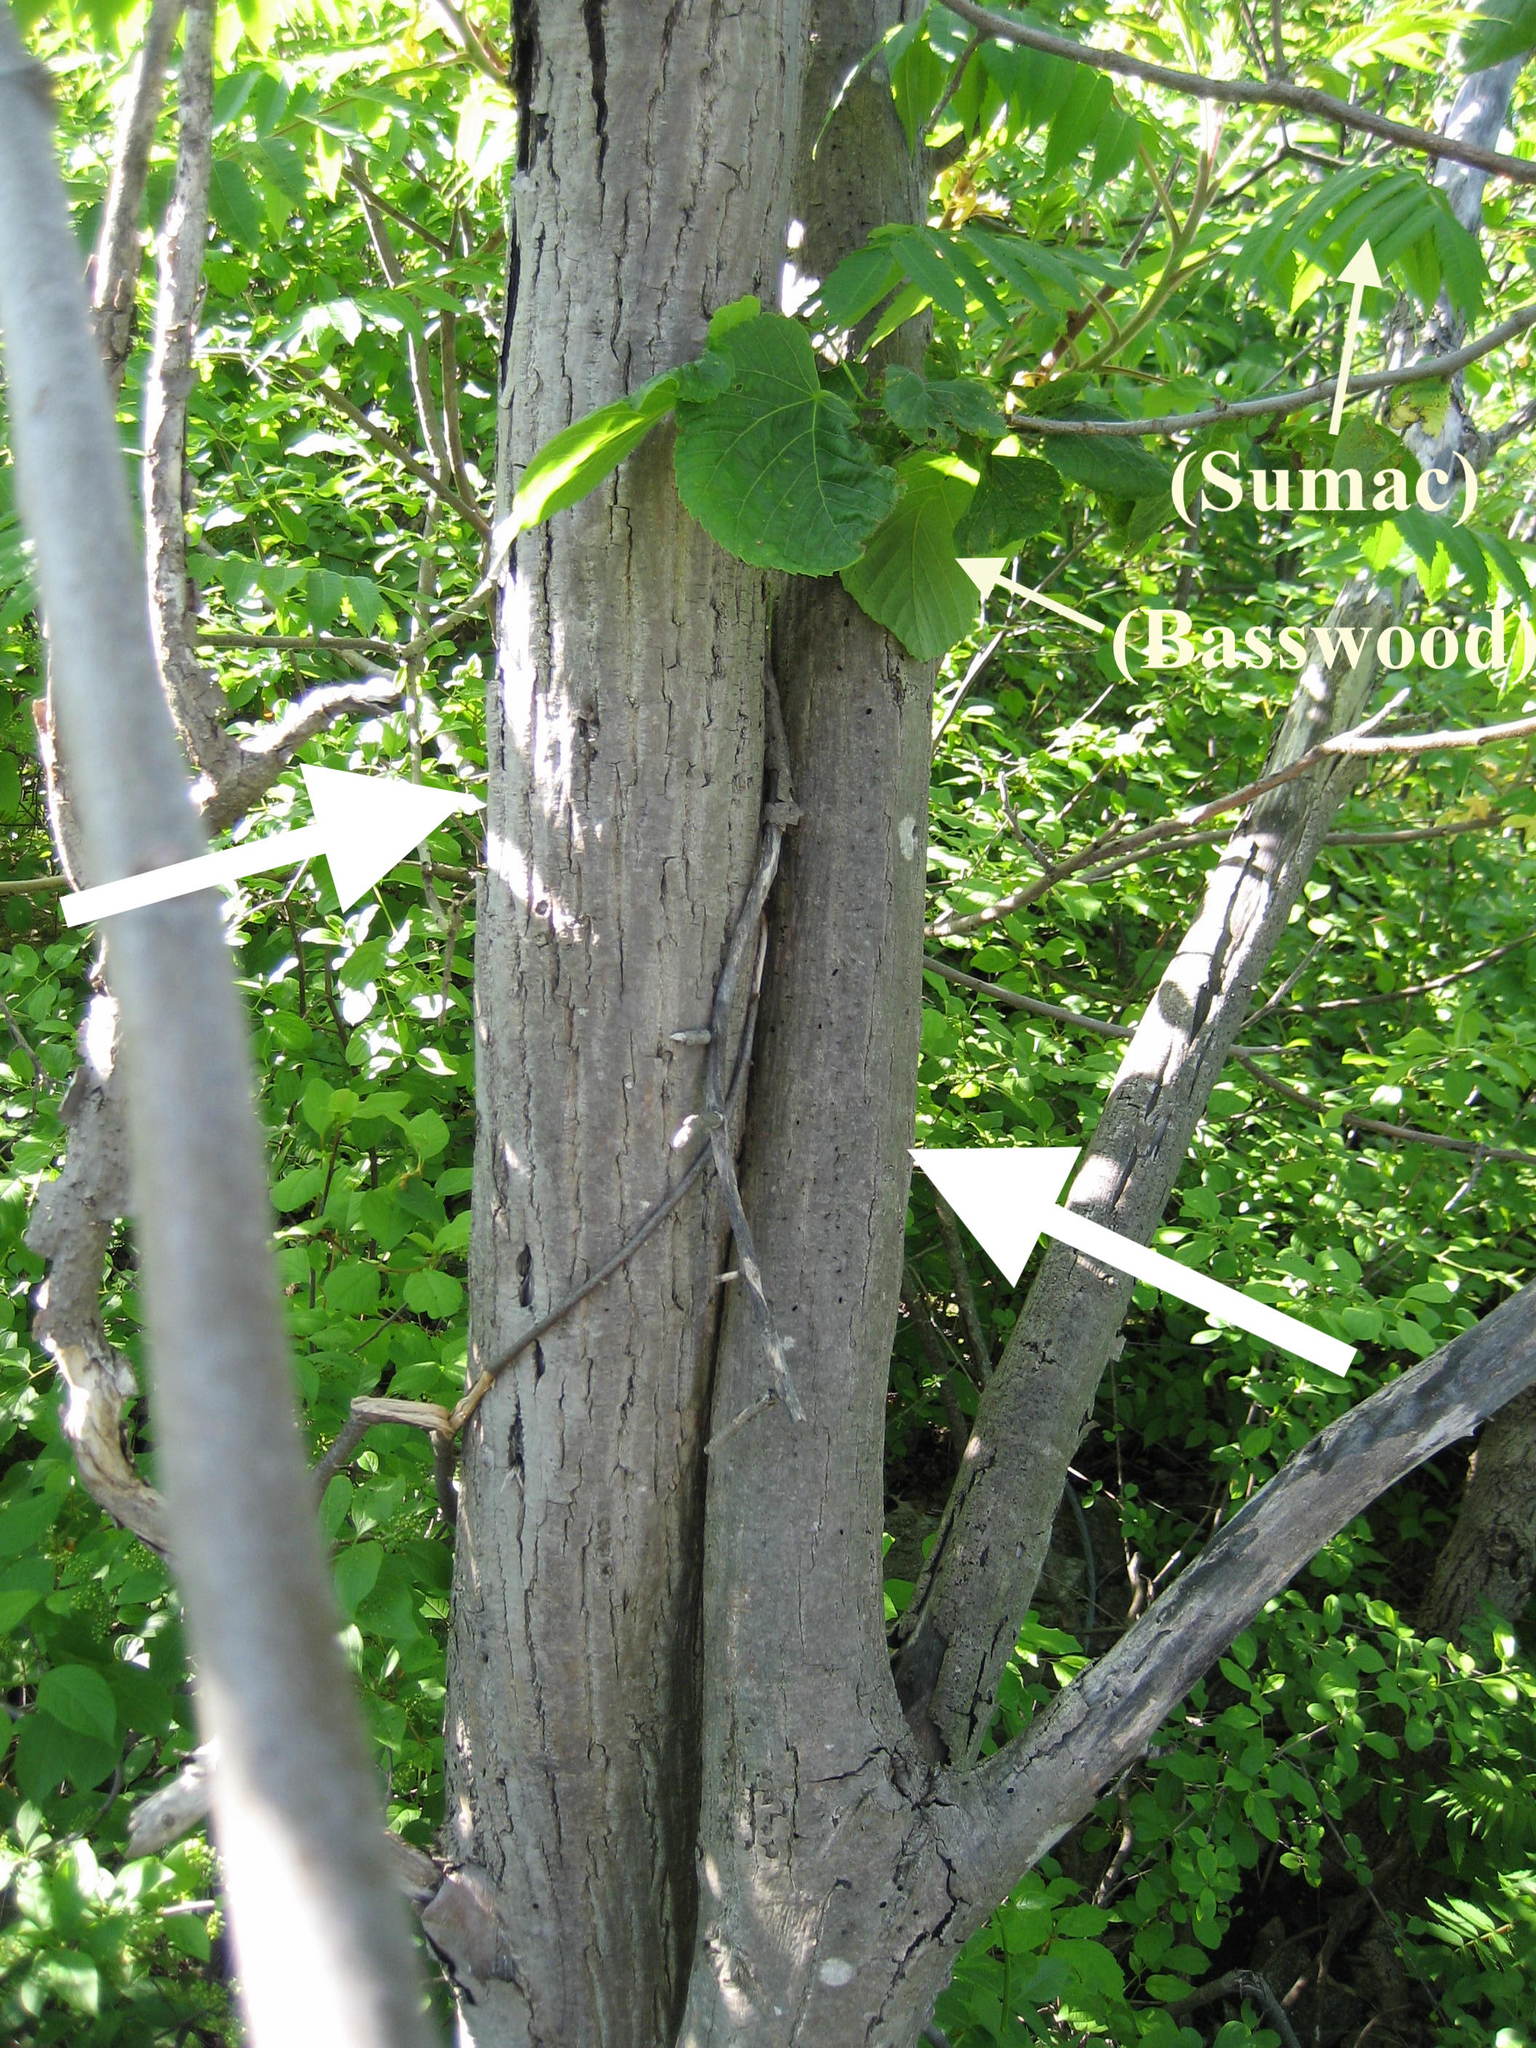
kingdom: Plantae
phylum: Tracheophyta
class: Magnoliopsida
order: Fagales
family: Juglandaceae
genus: Juglans
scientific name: Juglans cinerea
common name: Butternut
